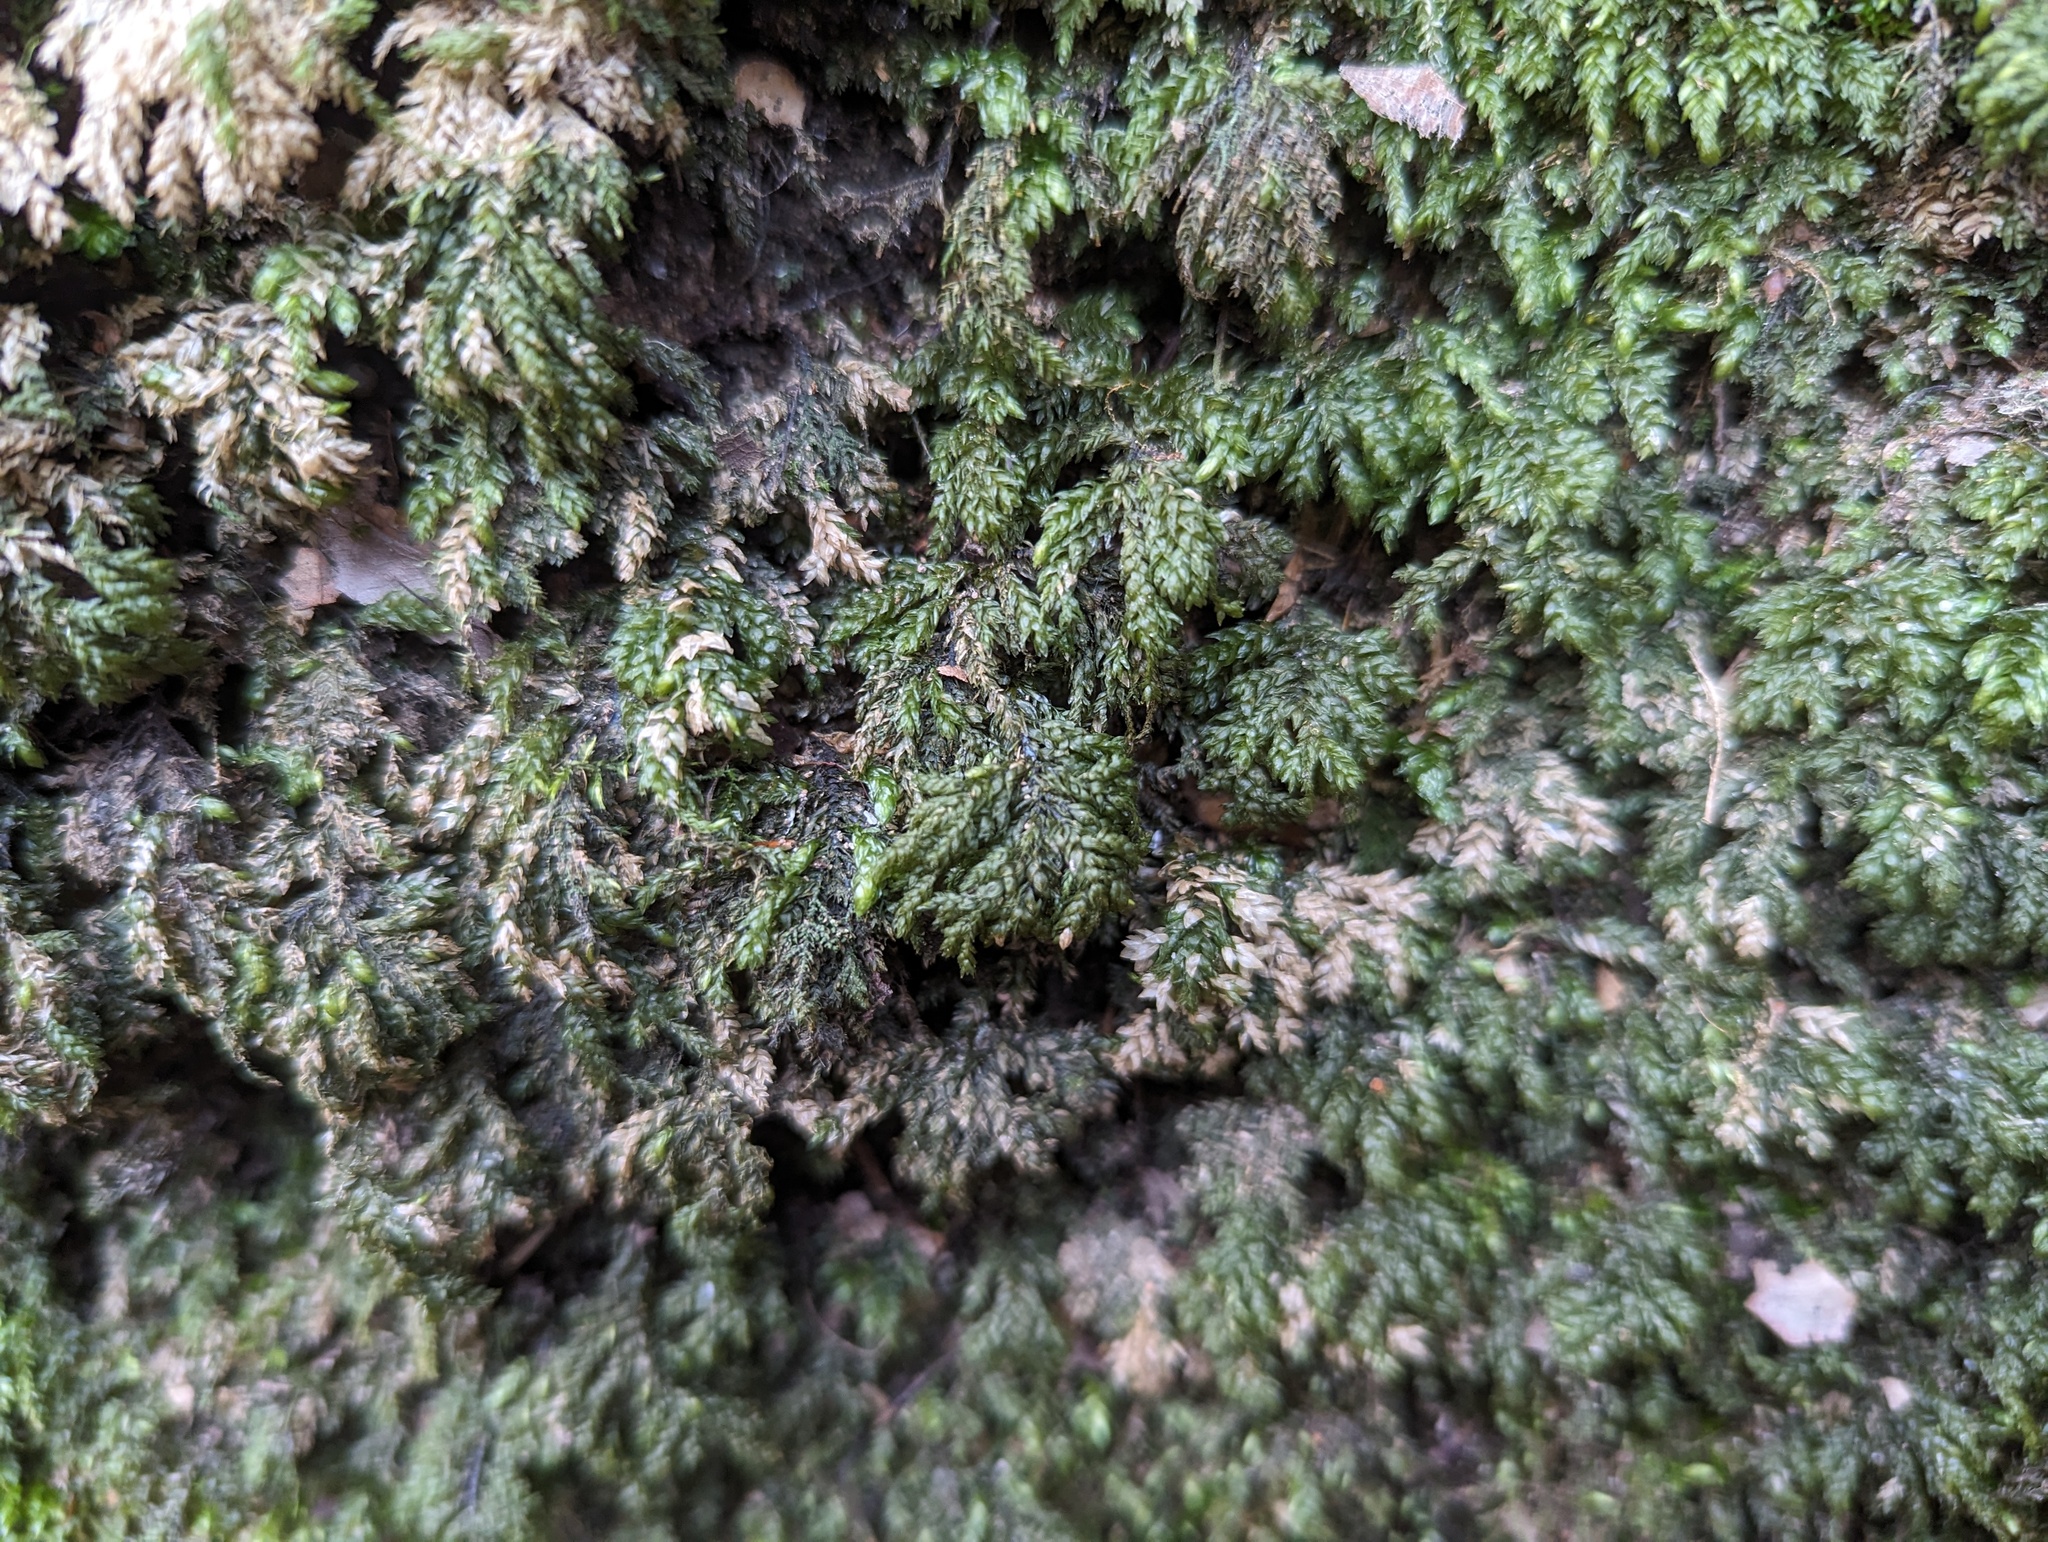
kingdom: Plantae
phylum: Bryophyta
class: Bryopsida
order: Hypnales
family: Neckeraceae
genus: Thamnobryum
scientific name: Thamnobryum subserratum
